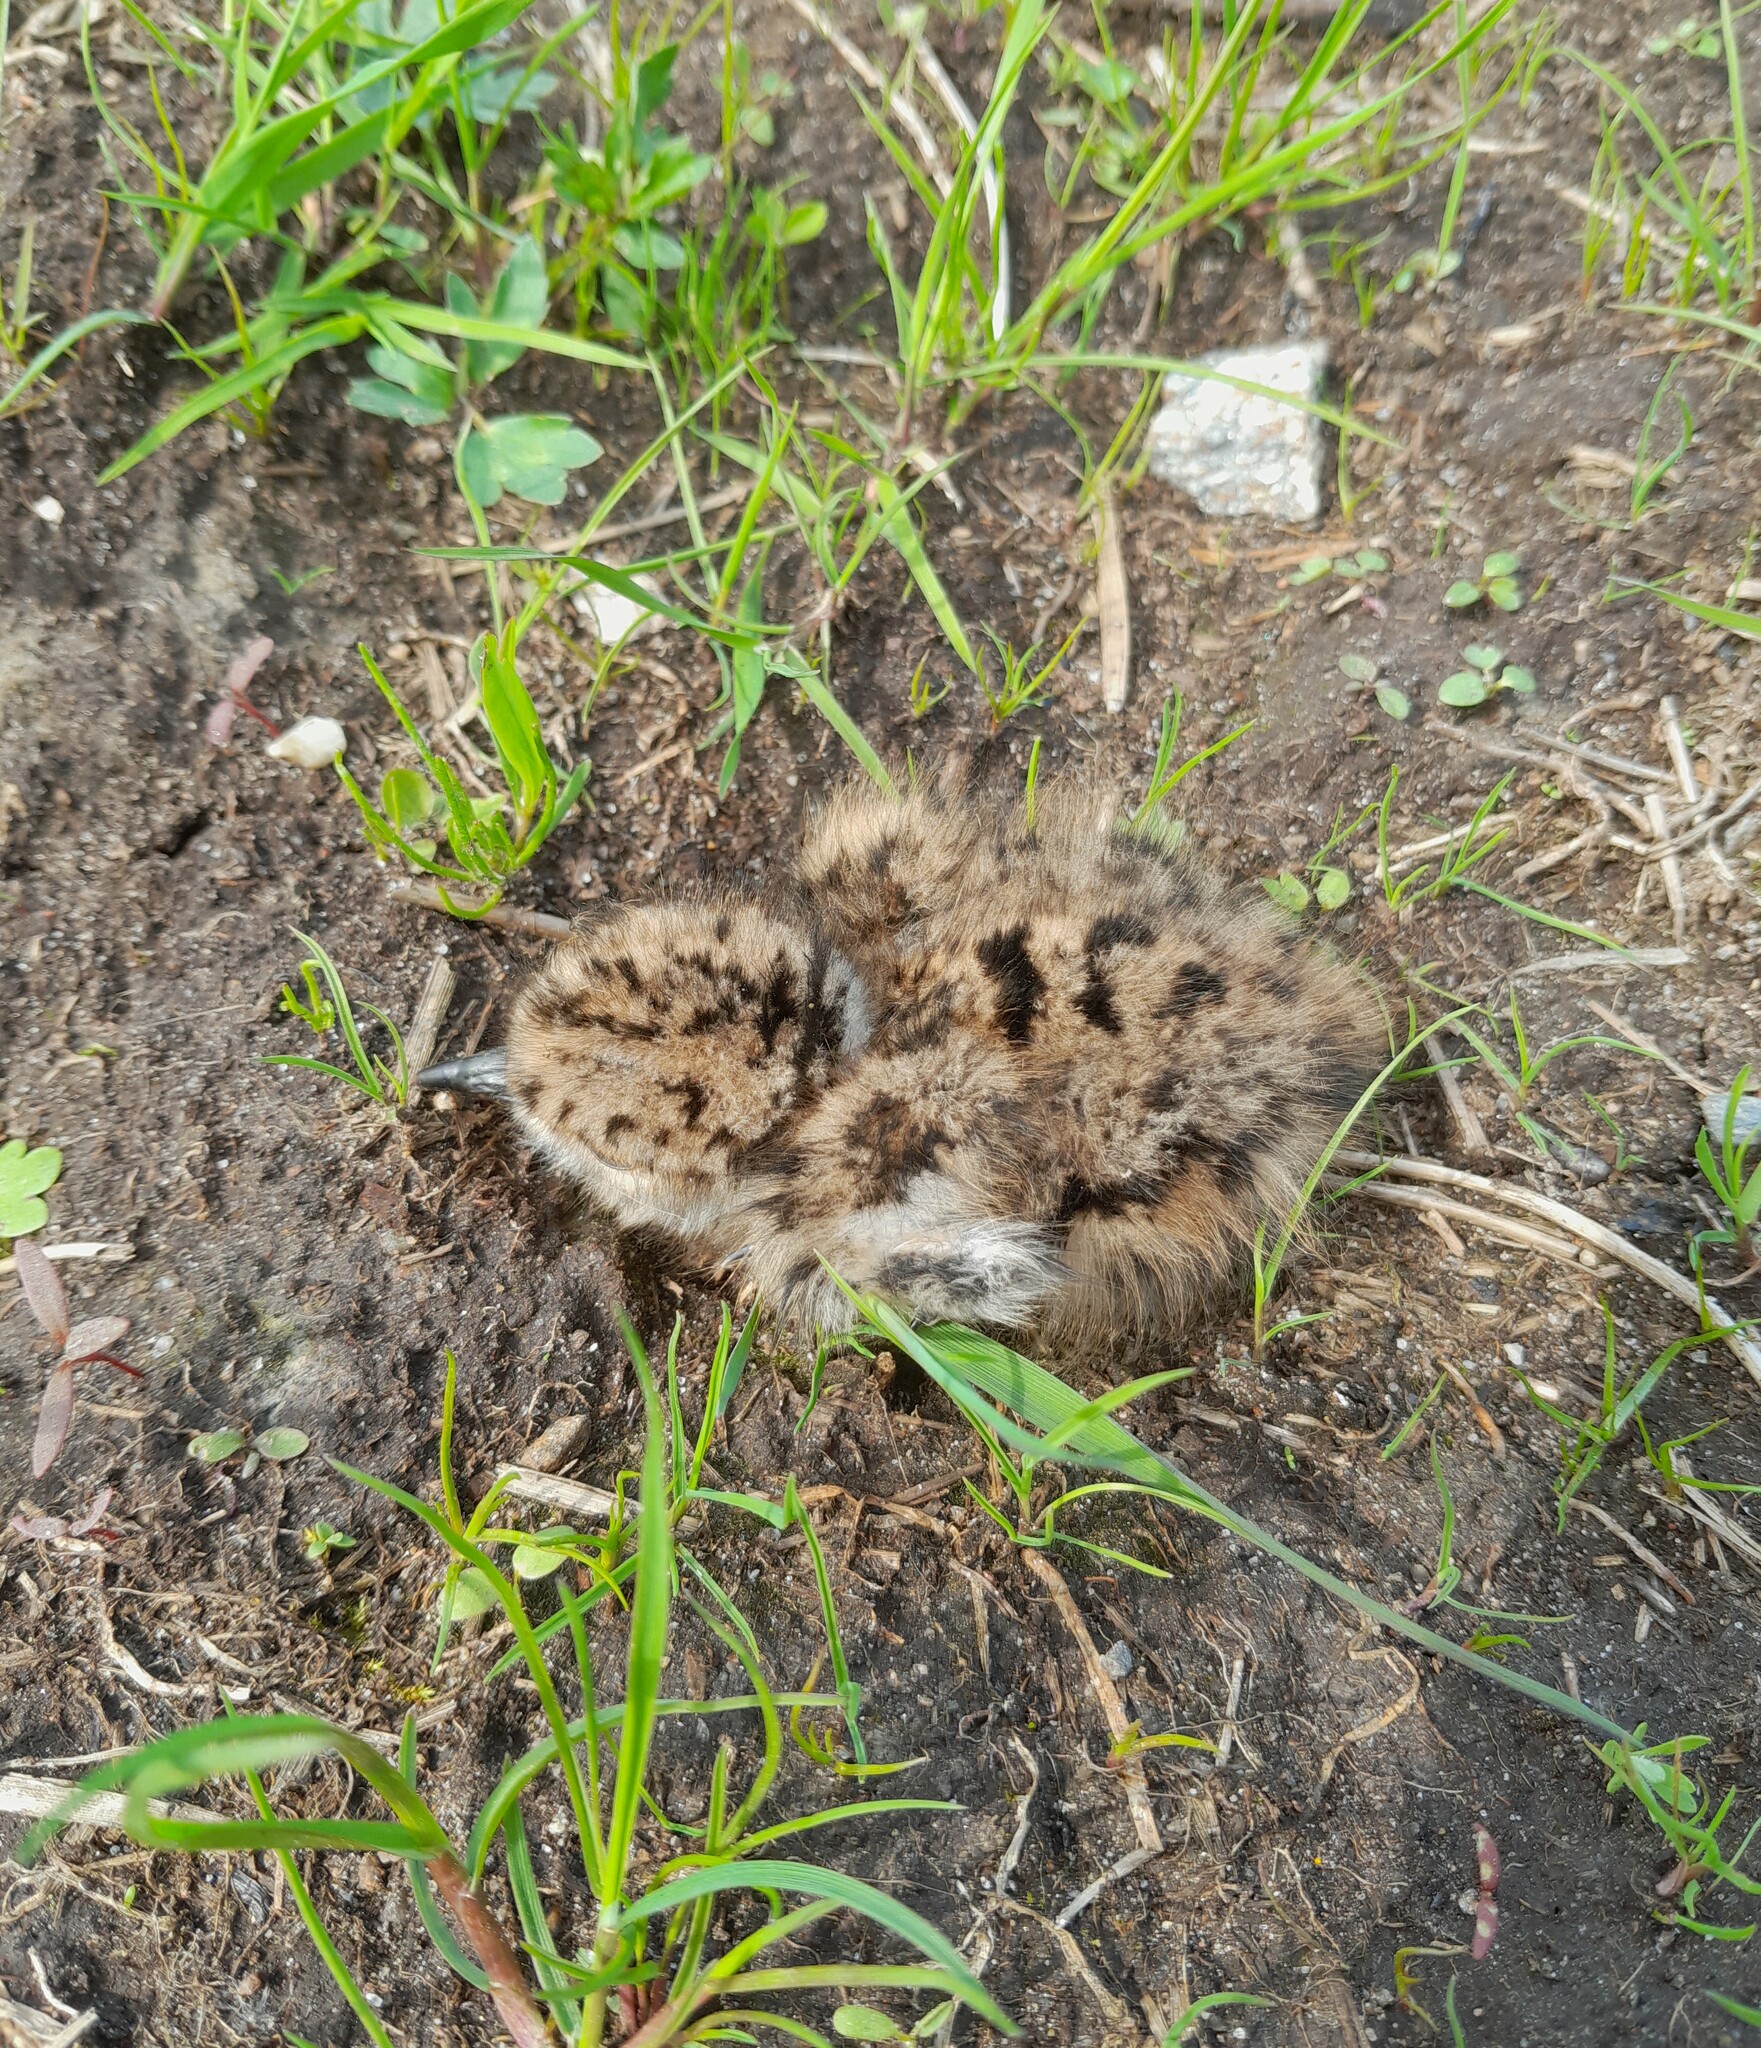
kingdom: Animalia
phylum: Chordata
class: Aves
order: Charadriiformes
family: Charadriidae
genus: Vanellus
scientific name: Vanellus vanellus
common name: Northern lapwing
